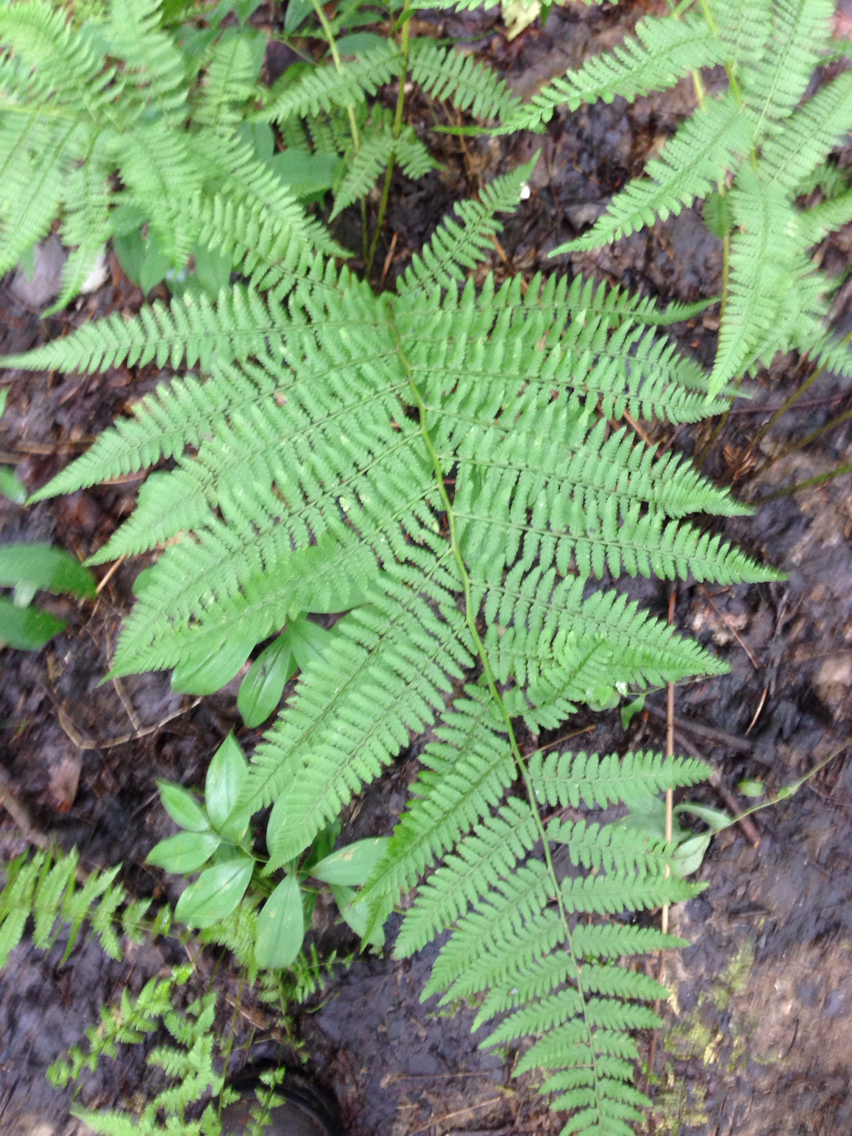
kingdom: Plantae
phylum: Tracheophyta
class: Polypodiopsida
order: Polypodiales
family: Athyriaceae
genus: Athyrium
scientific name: Athyrium angustum
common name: Northern lady fern
